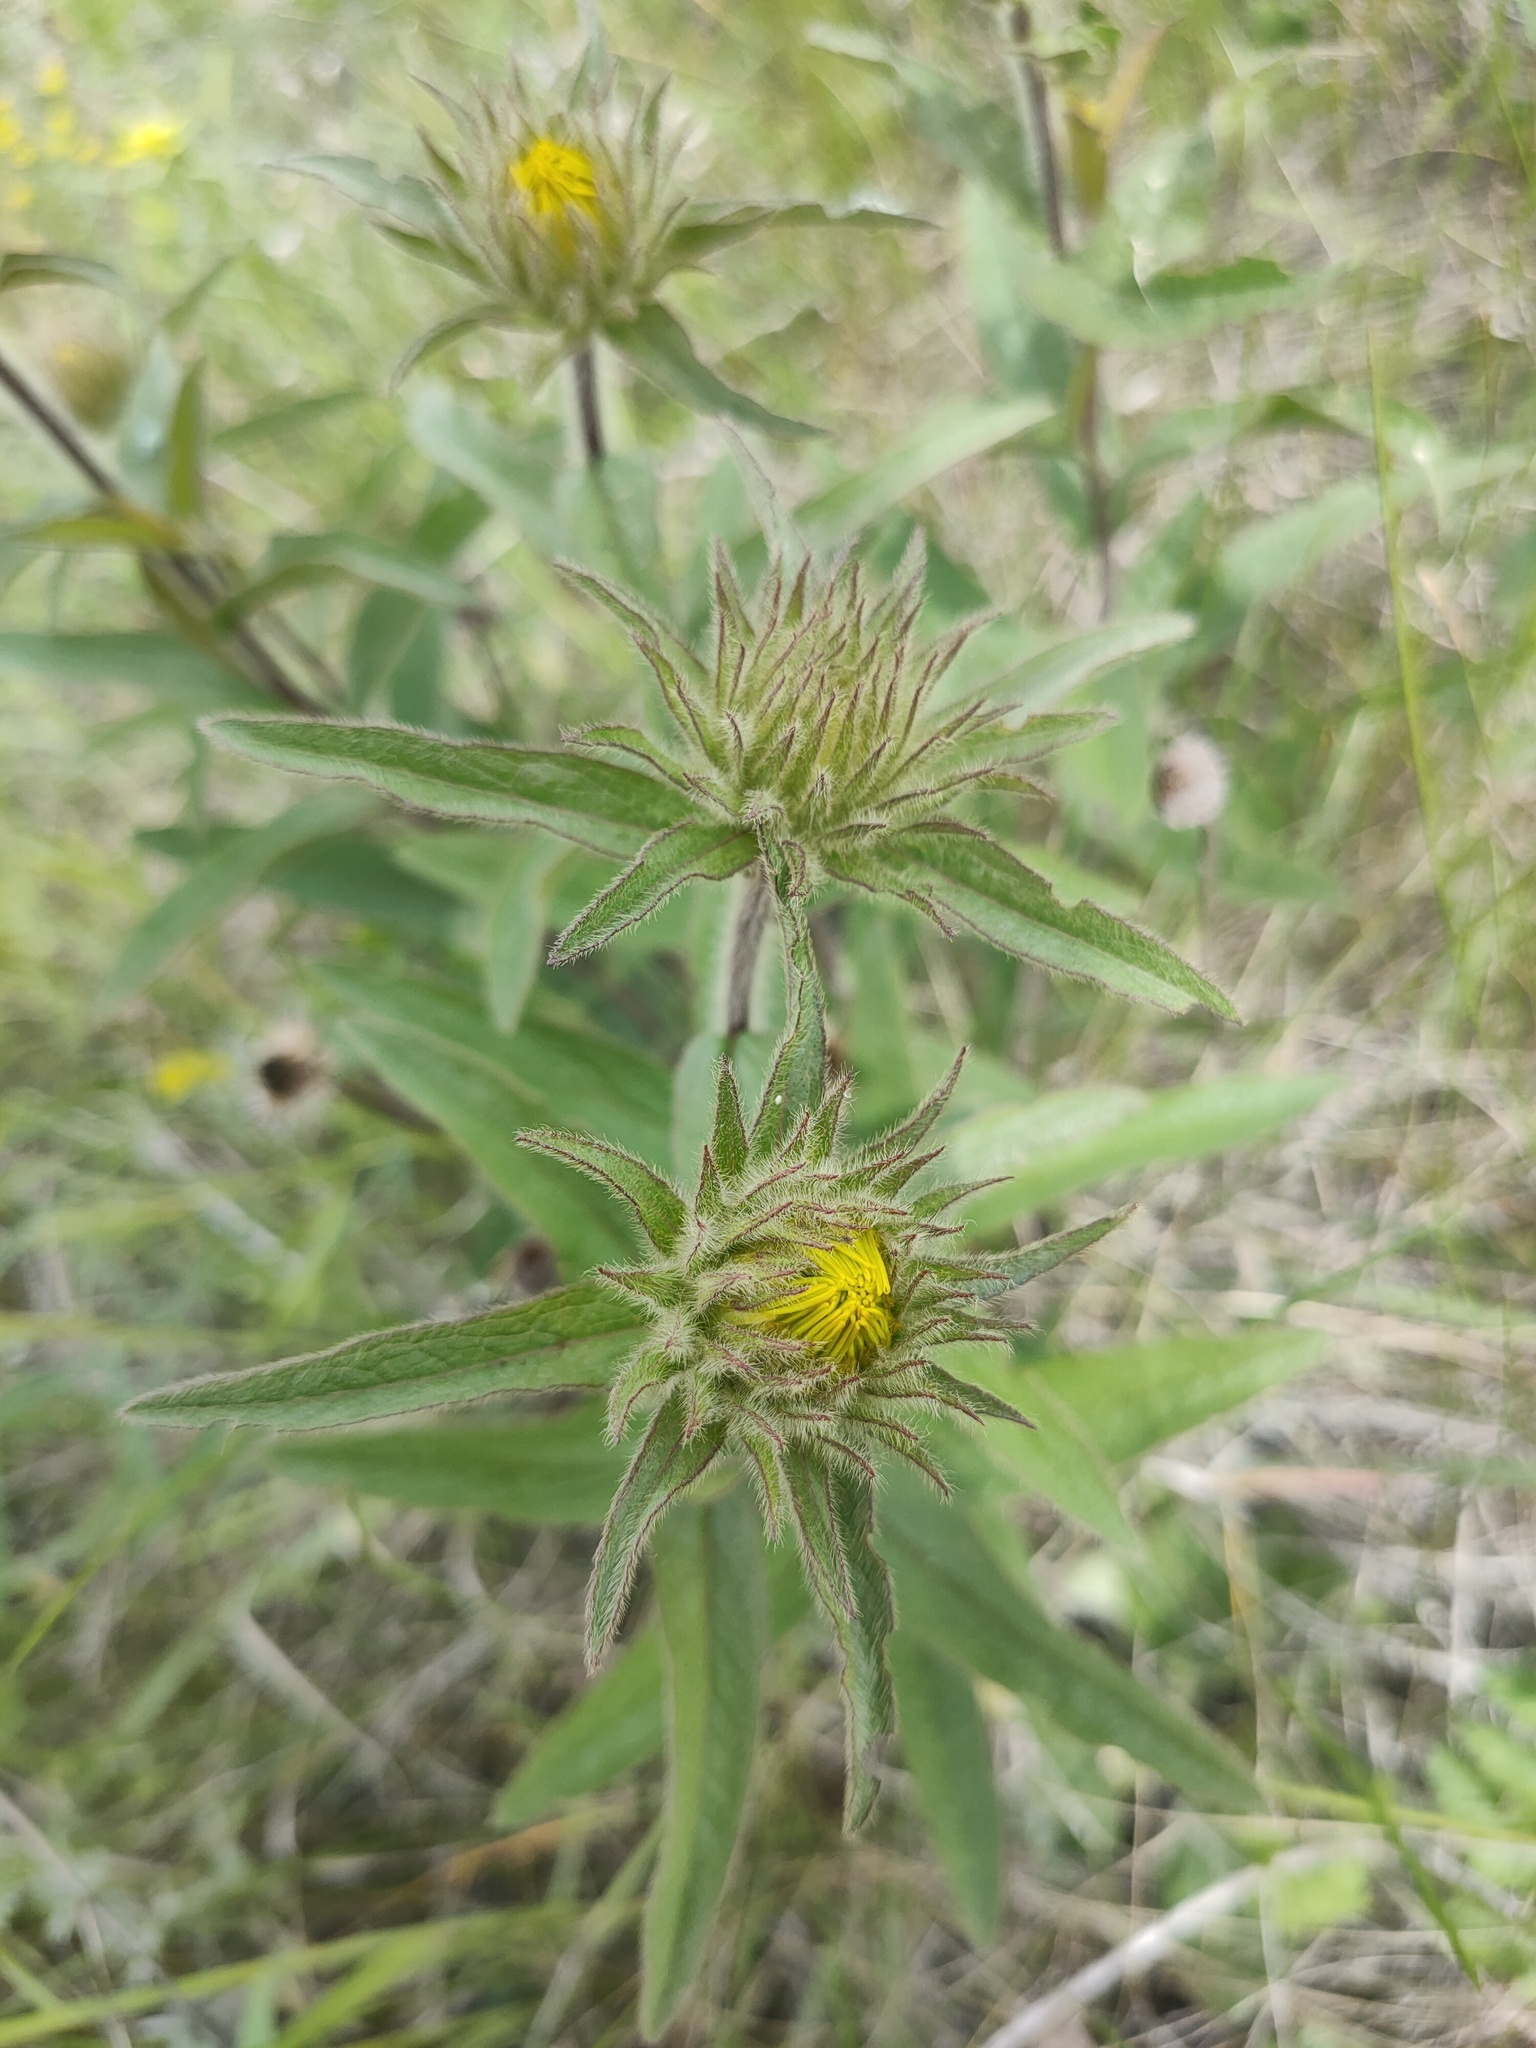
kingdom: Plantae
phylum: Tracheophyta
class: Magnoliopsida
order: Asterales
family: Asteraceae
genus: Pentanema
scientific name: Pentanema hirtum
